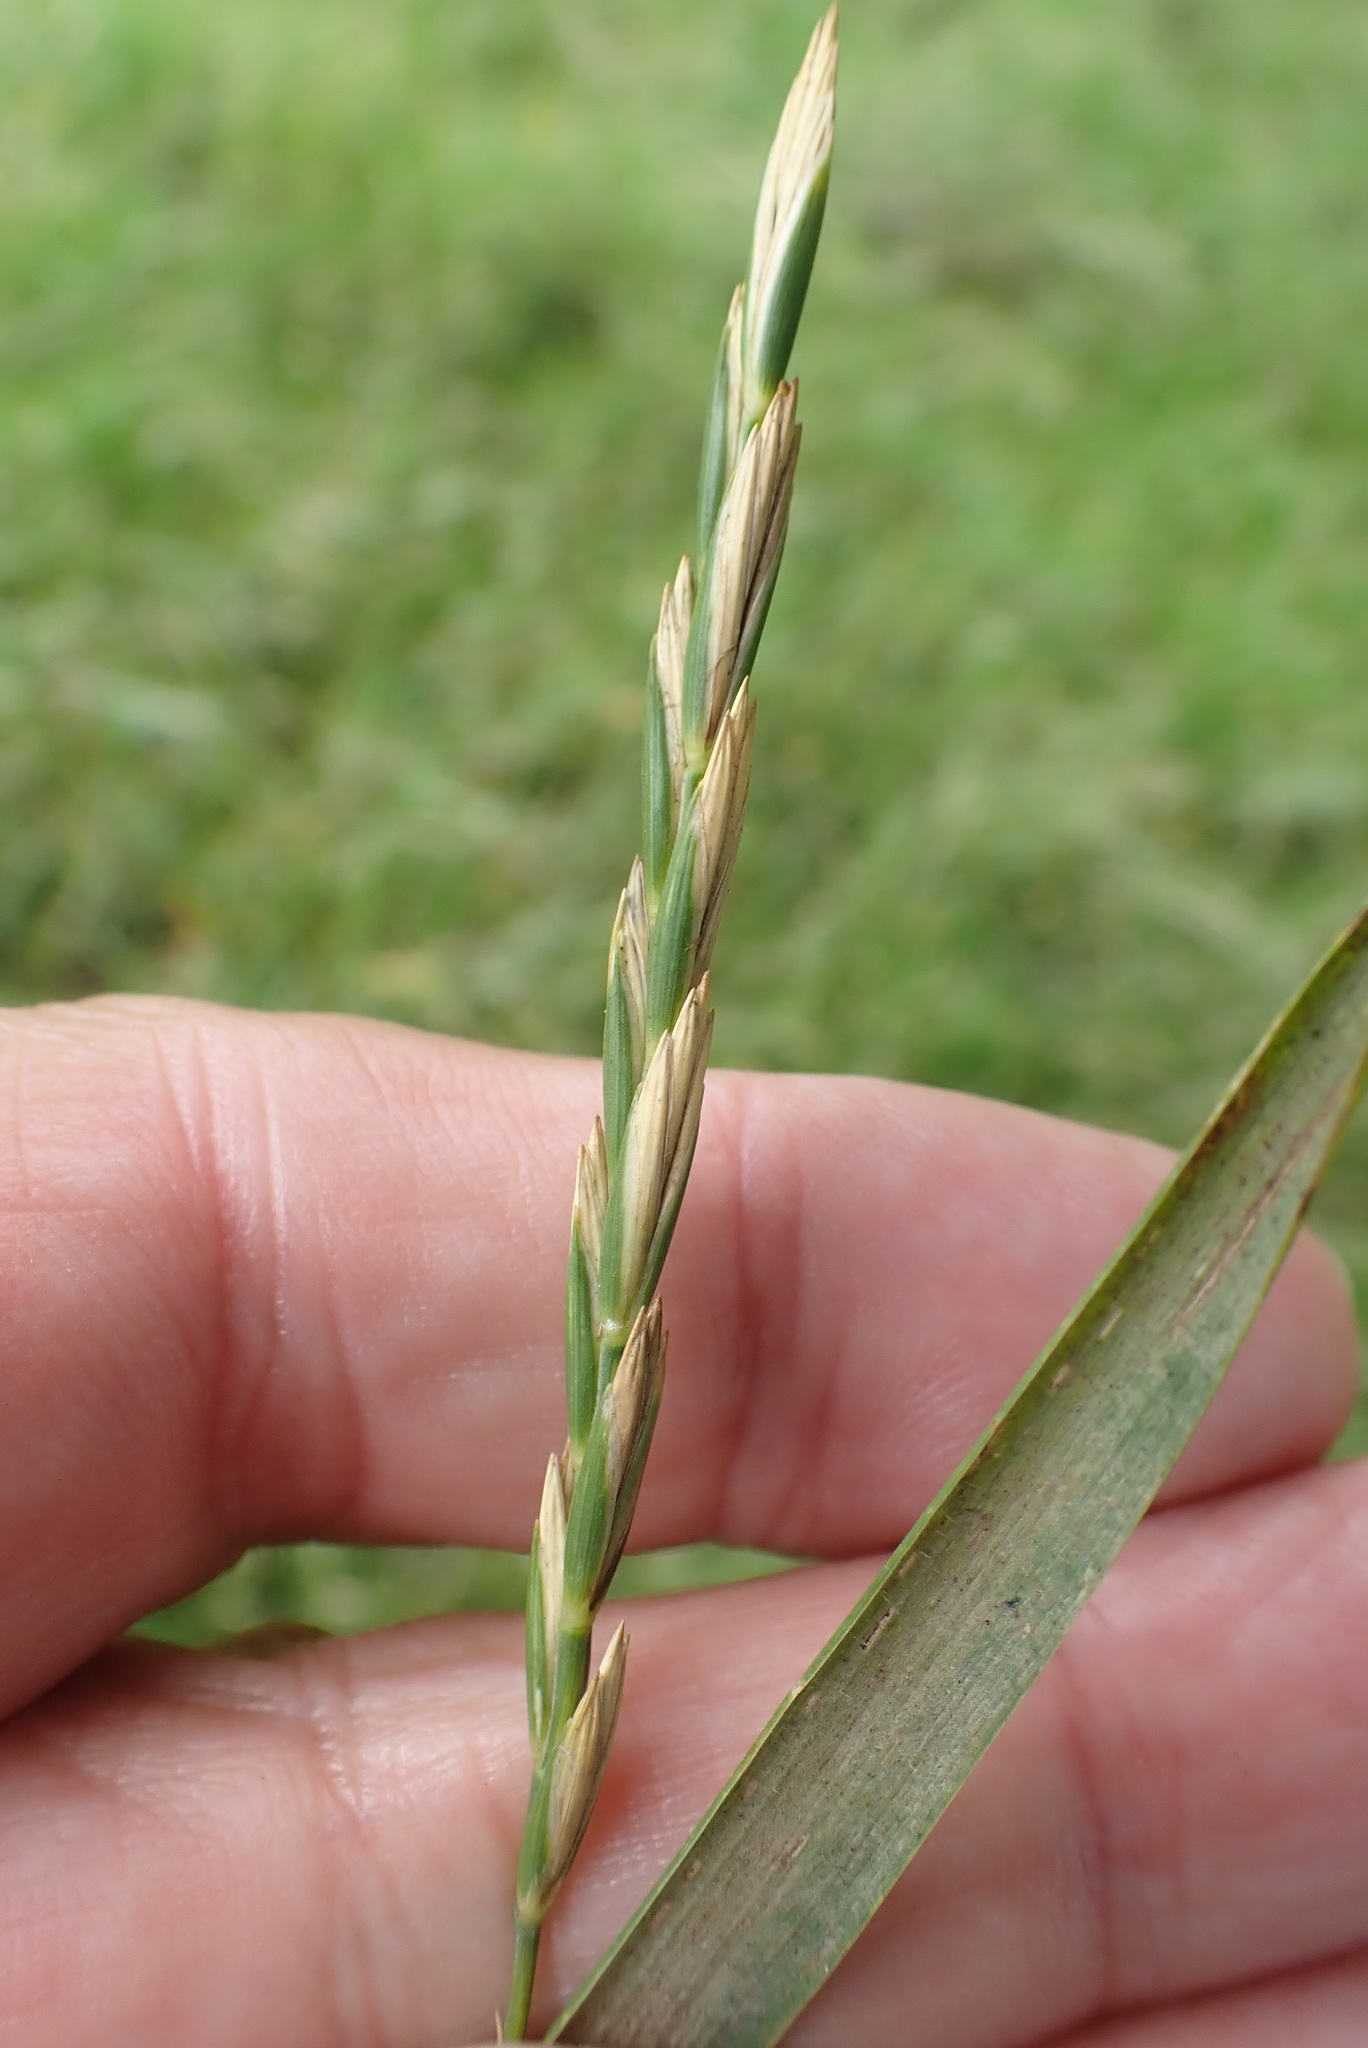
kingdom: Plantae
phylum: Tracheophyta
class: Liliopsida
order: Poales
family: Poaceae
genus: Elymus
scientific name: Elymus repens
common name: Quackgrass
